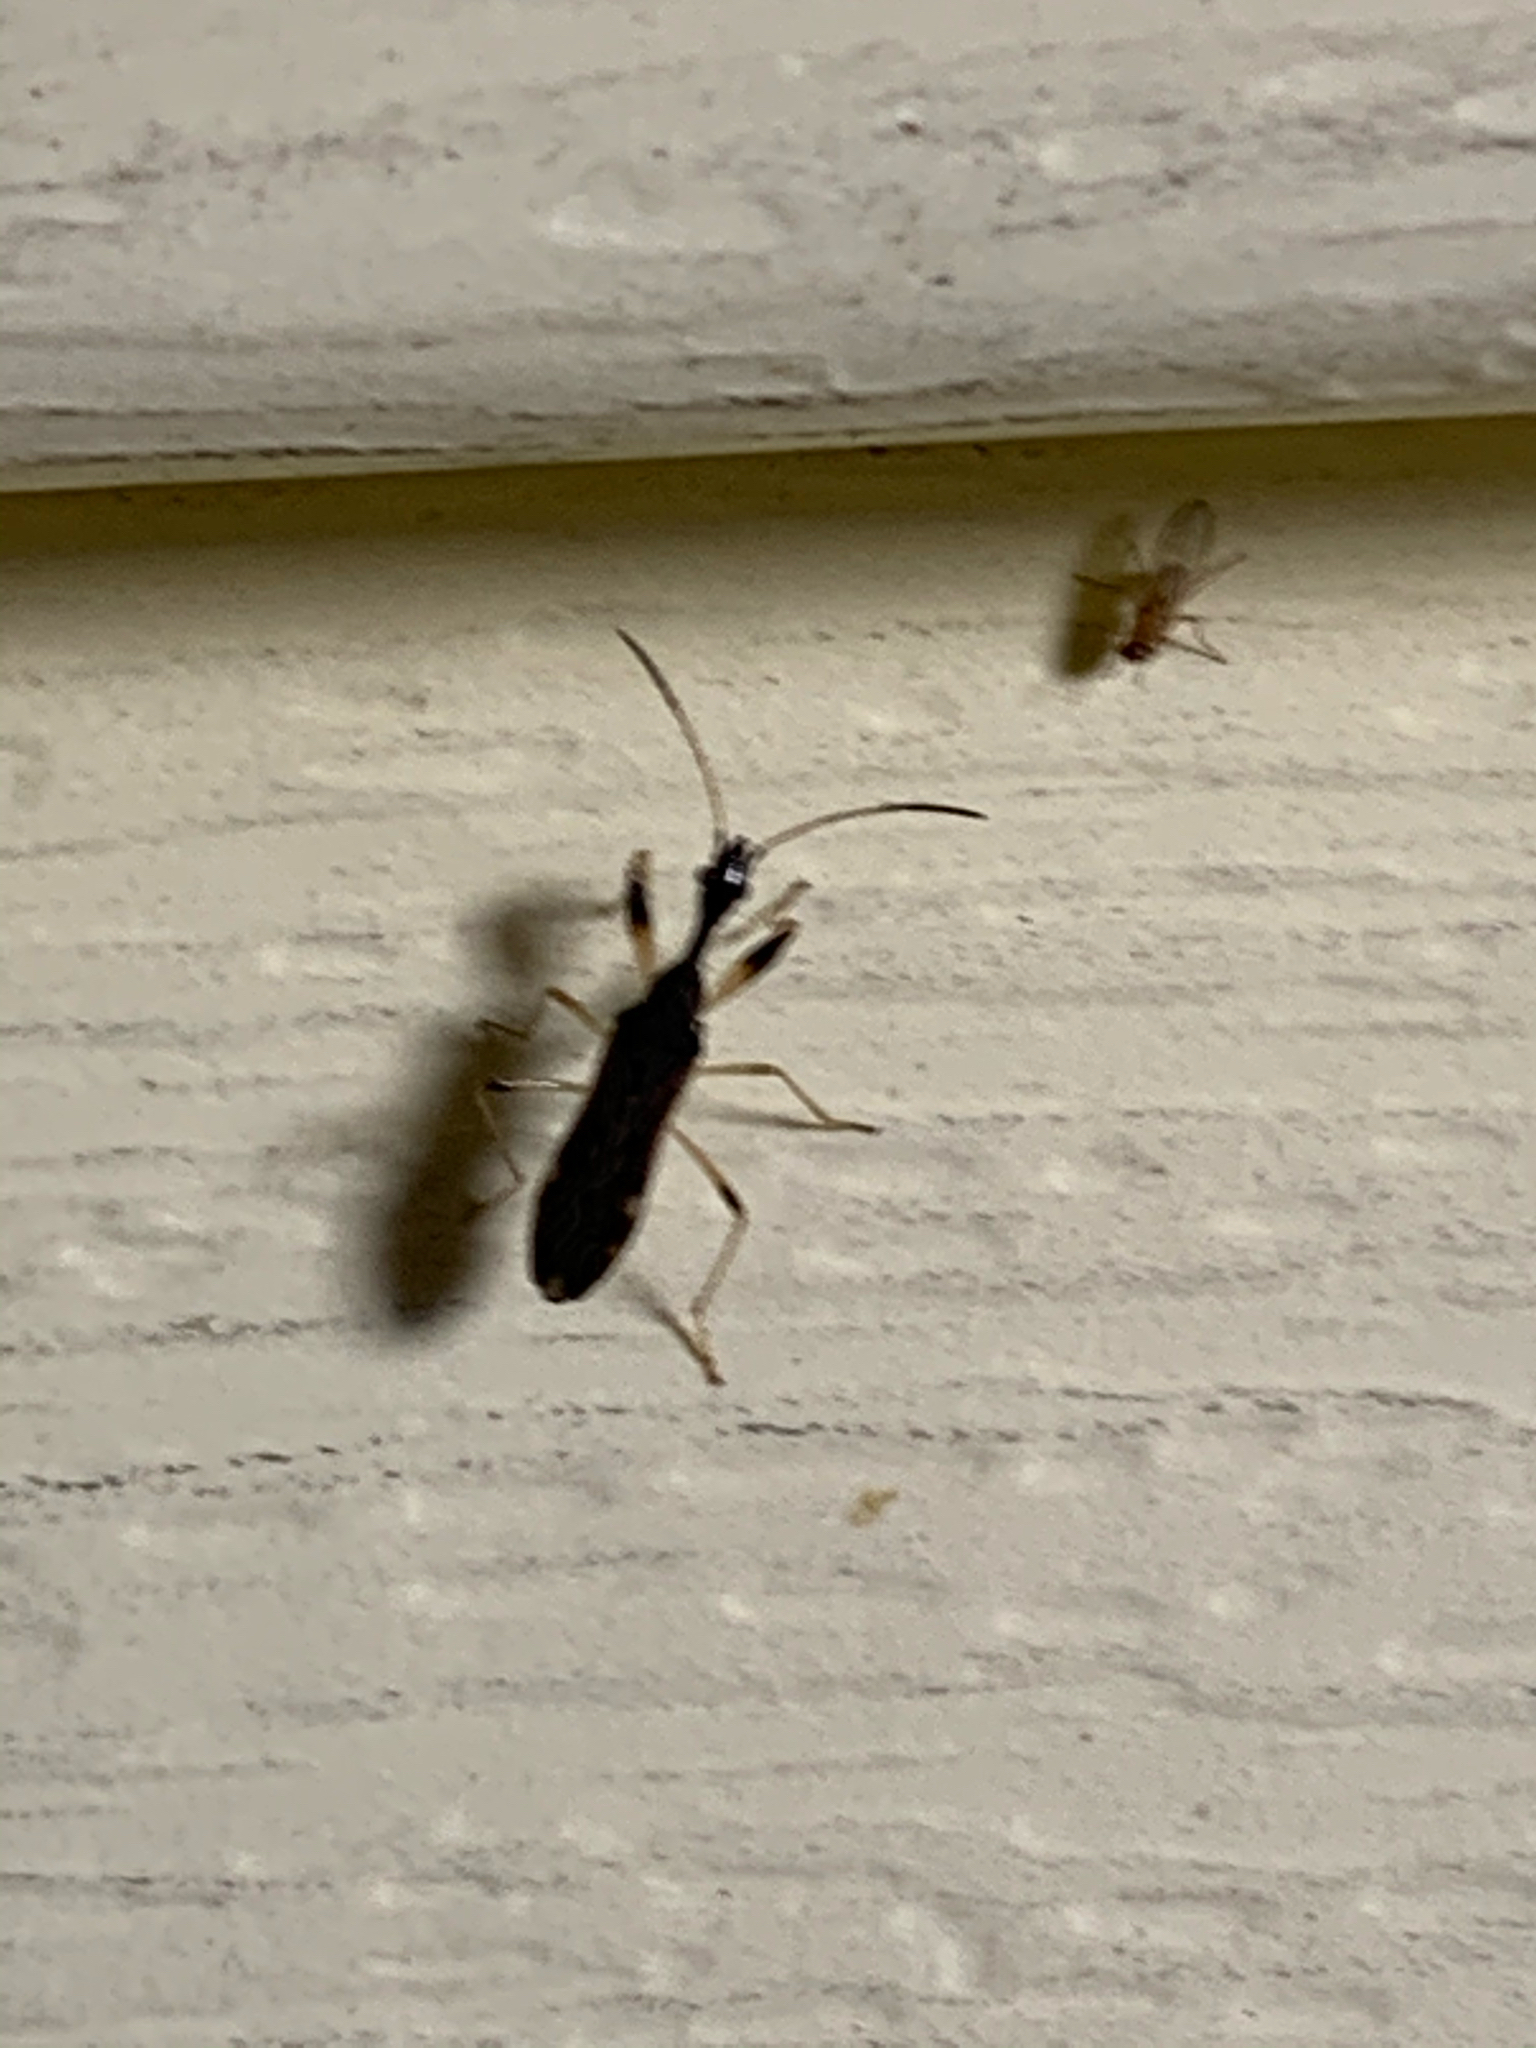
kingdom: Animalia
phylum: Arthropoda
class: Insecta
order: Hemiptera
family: Rhyparochromidae
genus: Myodocha
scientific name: Myodocha serripes
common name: Long-necked seed bug
